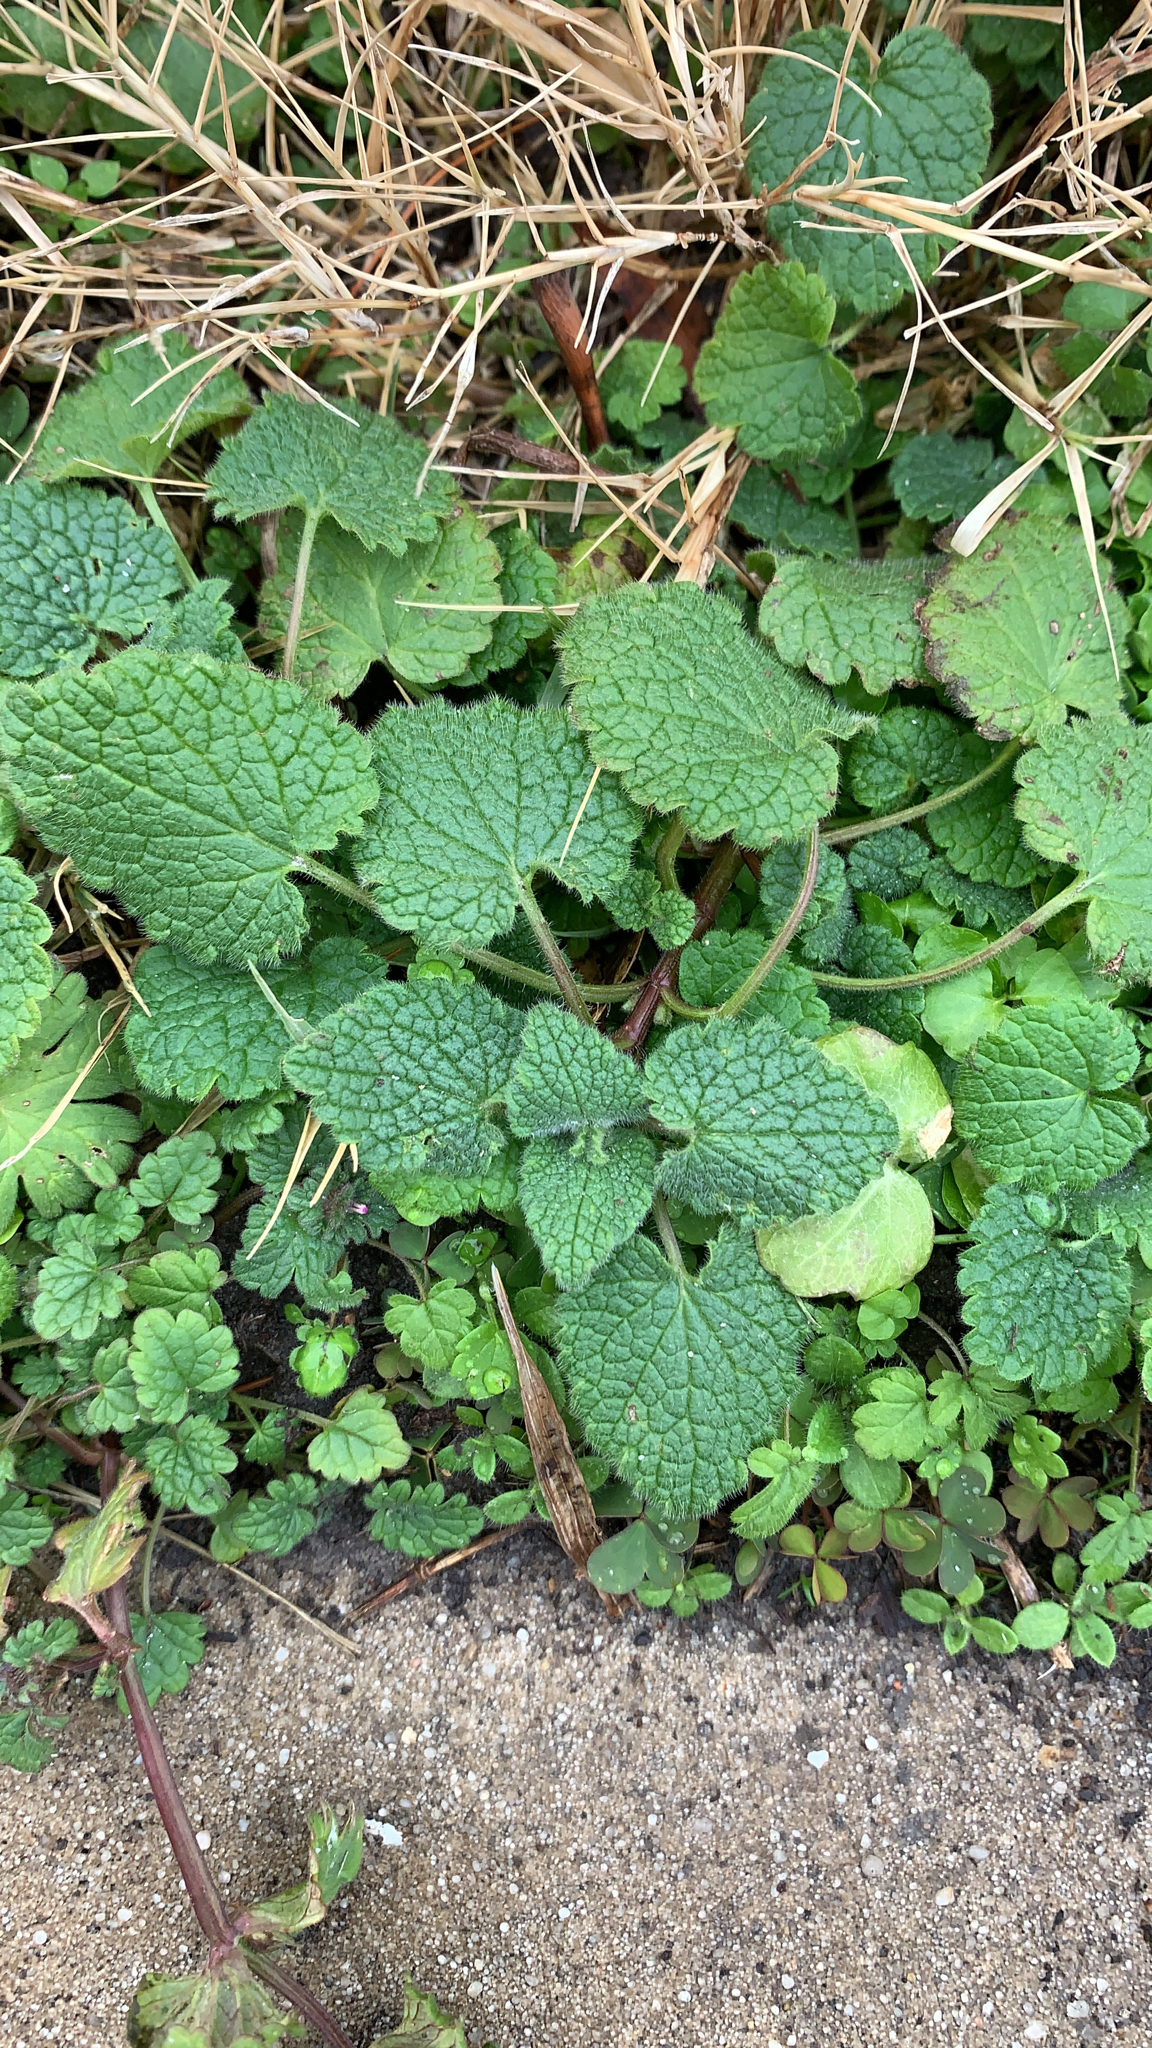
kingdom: Plantae
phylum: Tracheophyta
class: Magnoliopsida
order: Lamiales
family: Lamiaceae
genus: Lamium
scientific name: Lamium purpureum
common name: Red dead-nettle
